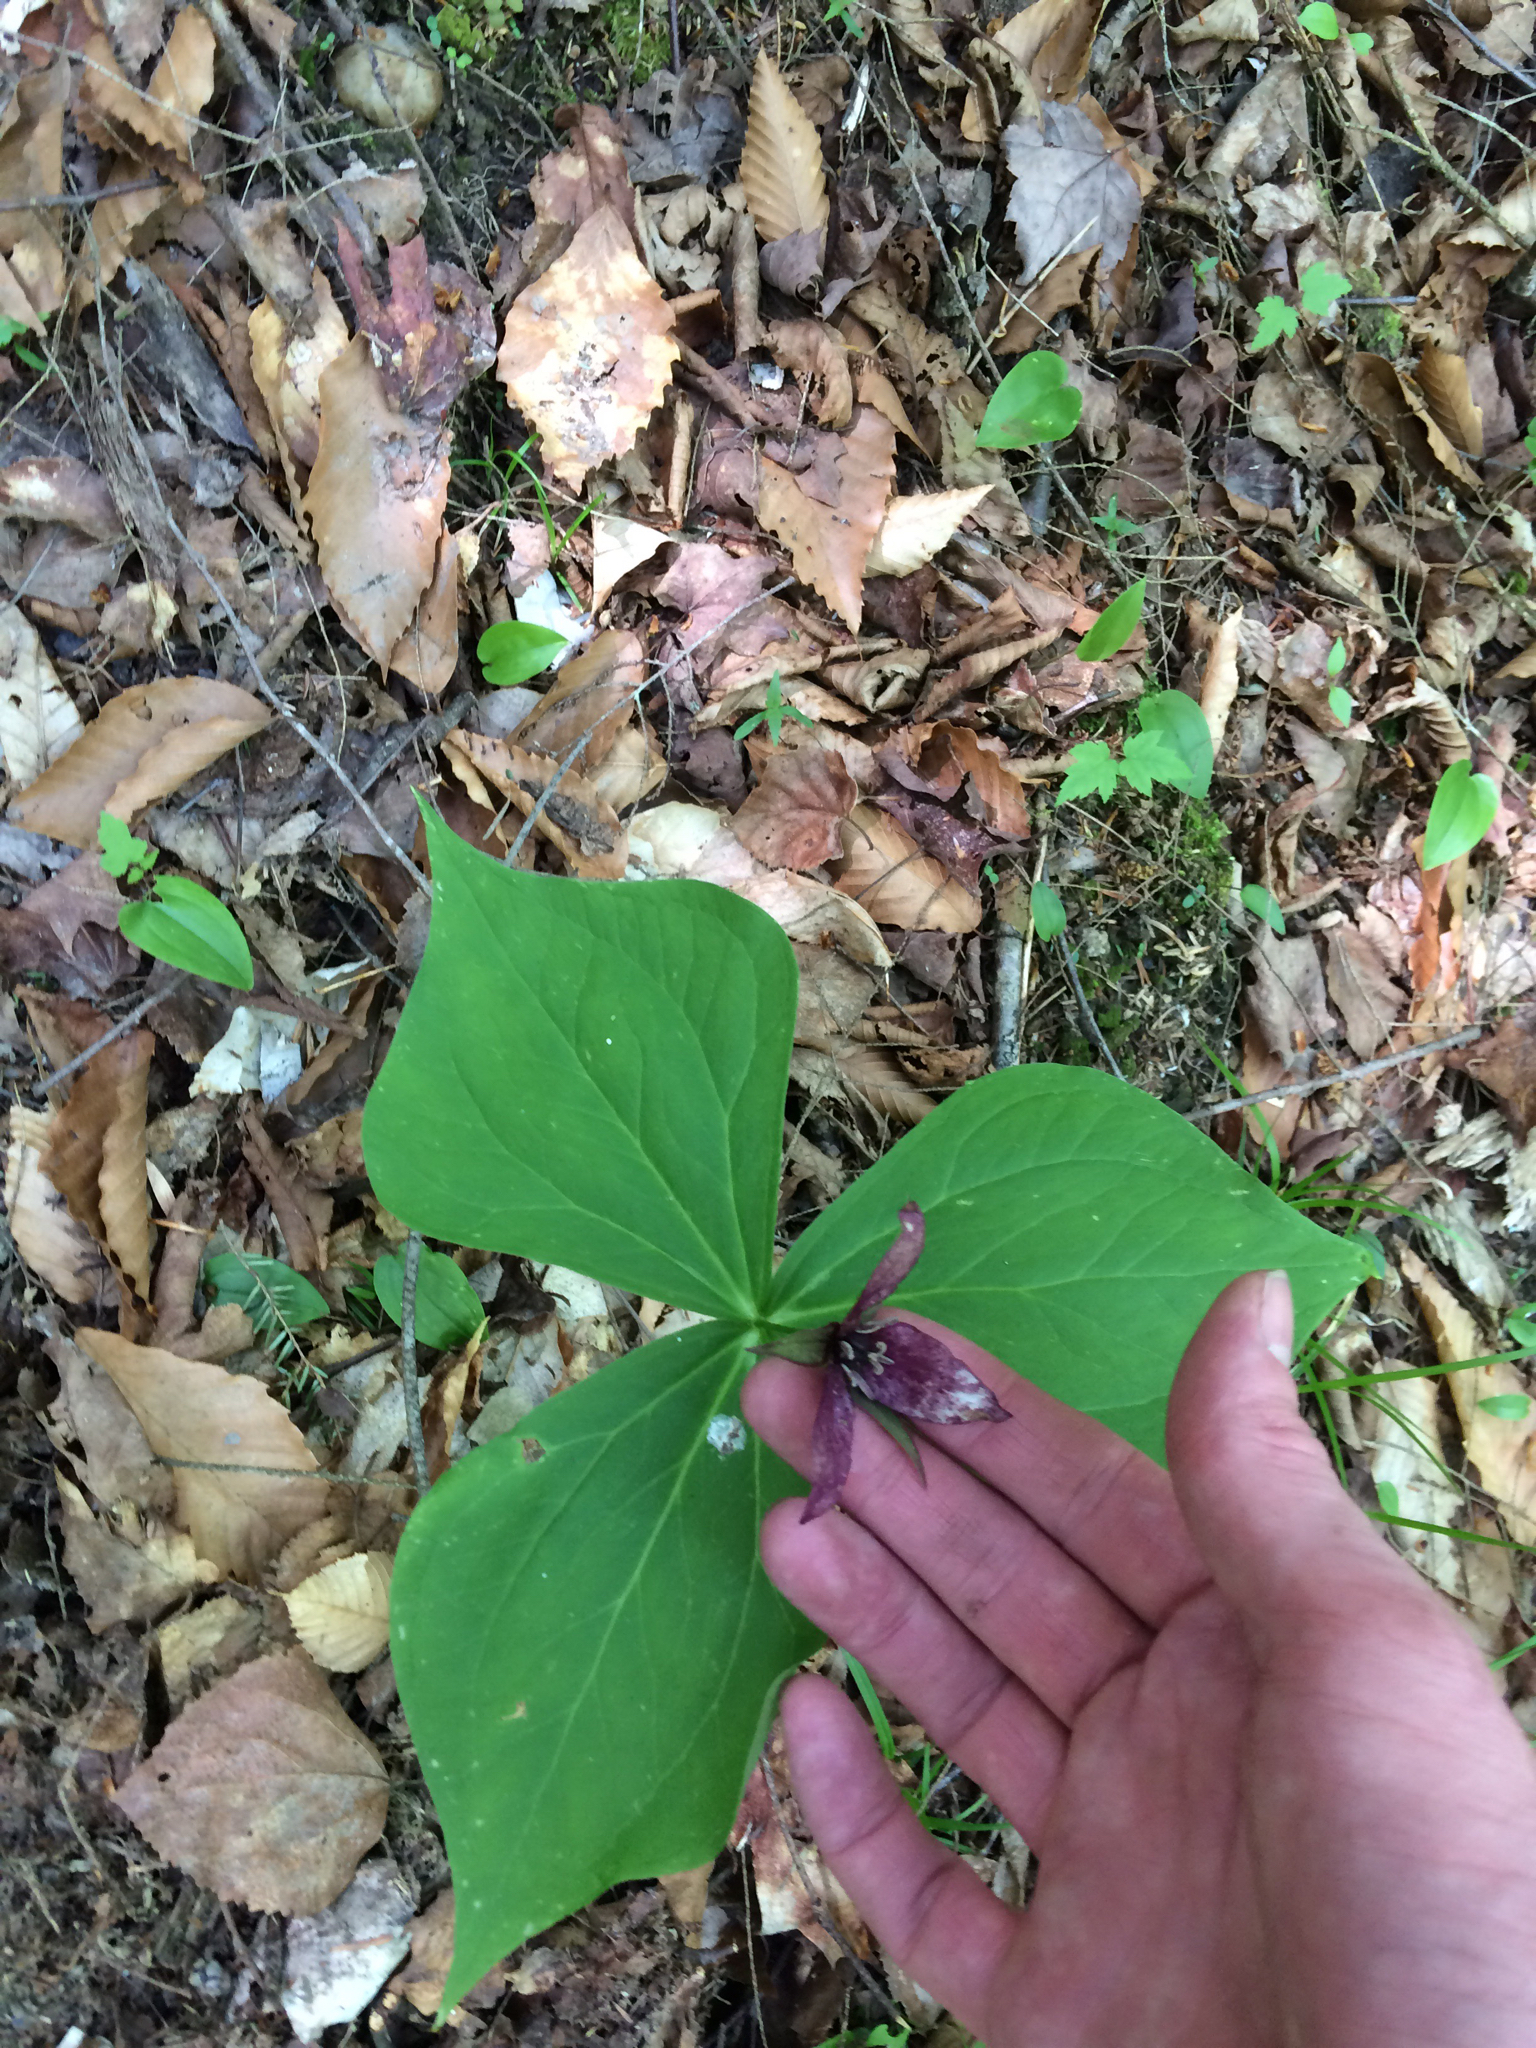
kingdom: Plantae
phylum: Tracheophyta
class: Liliopsida
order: Liliales
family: Melanthiaceae
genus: Trillium
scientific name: Trillium erectum
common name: Purple trillium
